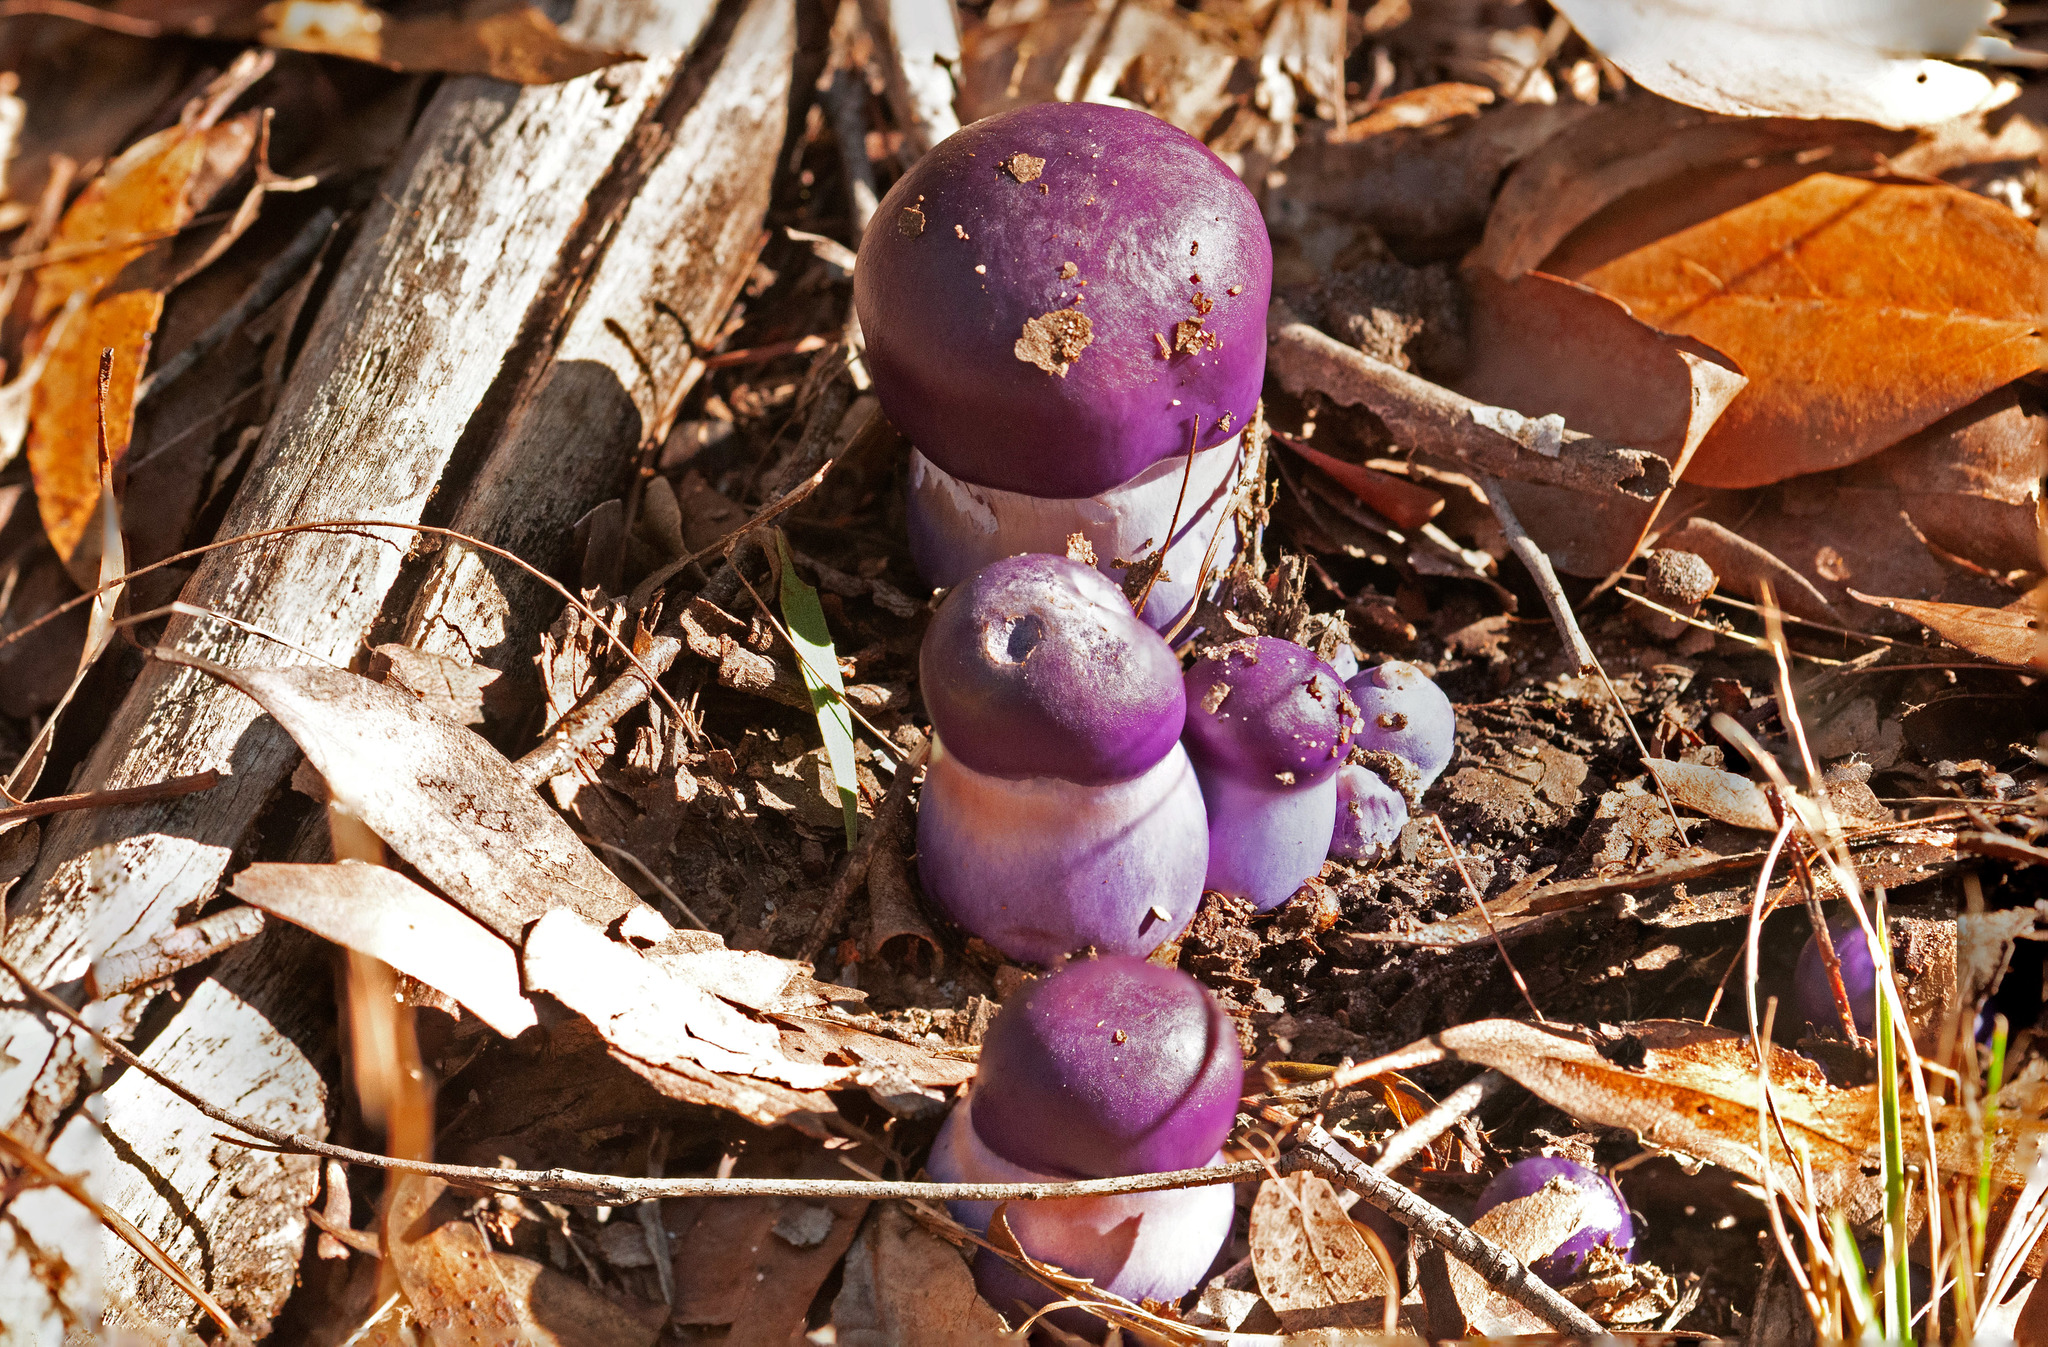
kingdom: Fungi
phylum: Basidiomycota
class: Agaricomycetes
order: Agaricales
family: Cortinariaceae
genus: Cortinarius
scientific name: Cortinarius archeri
